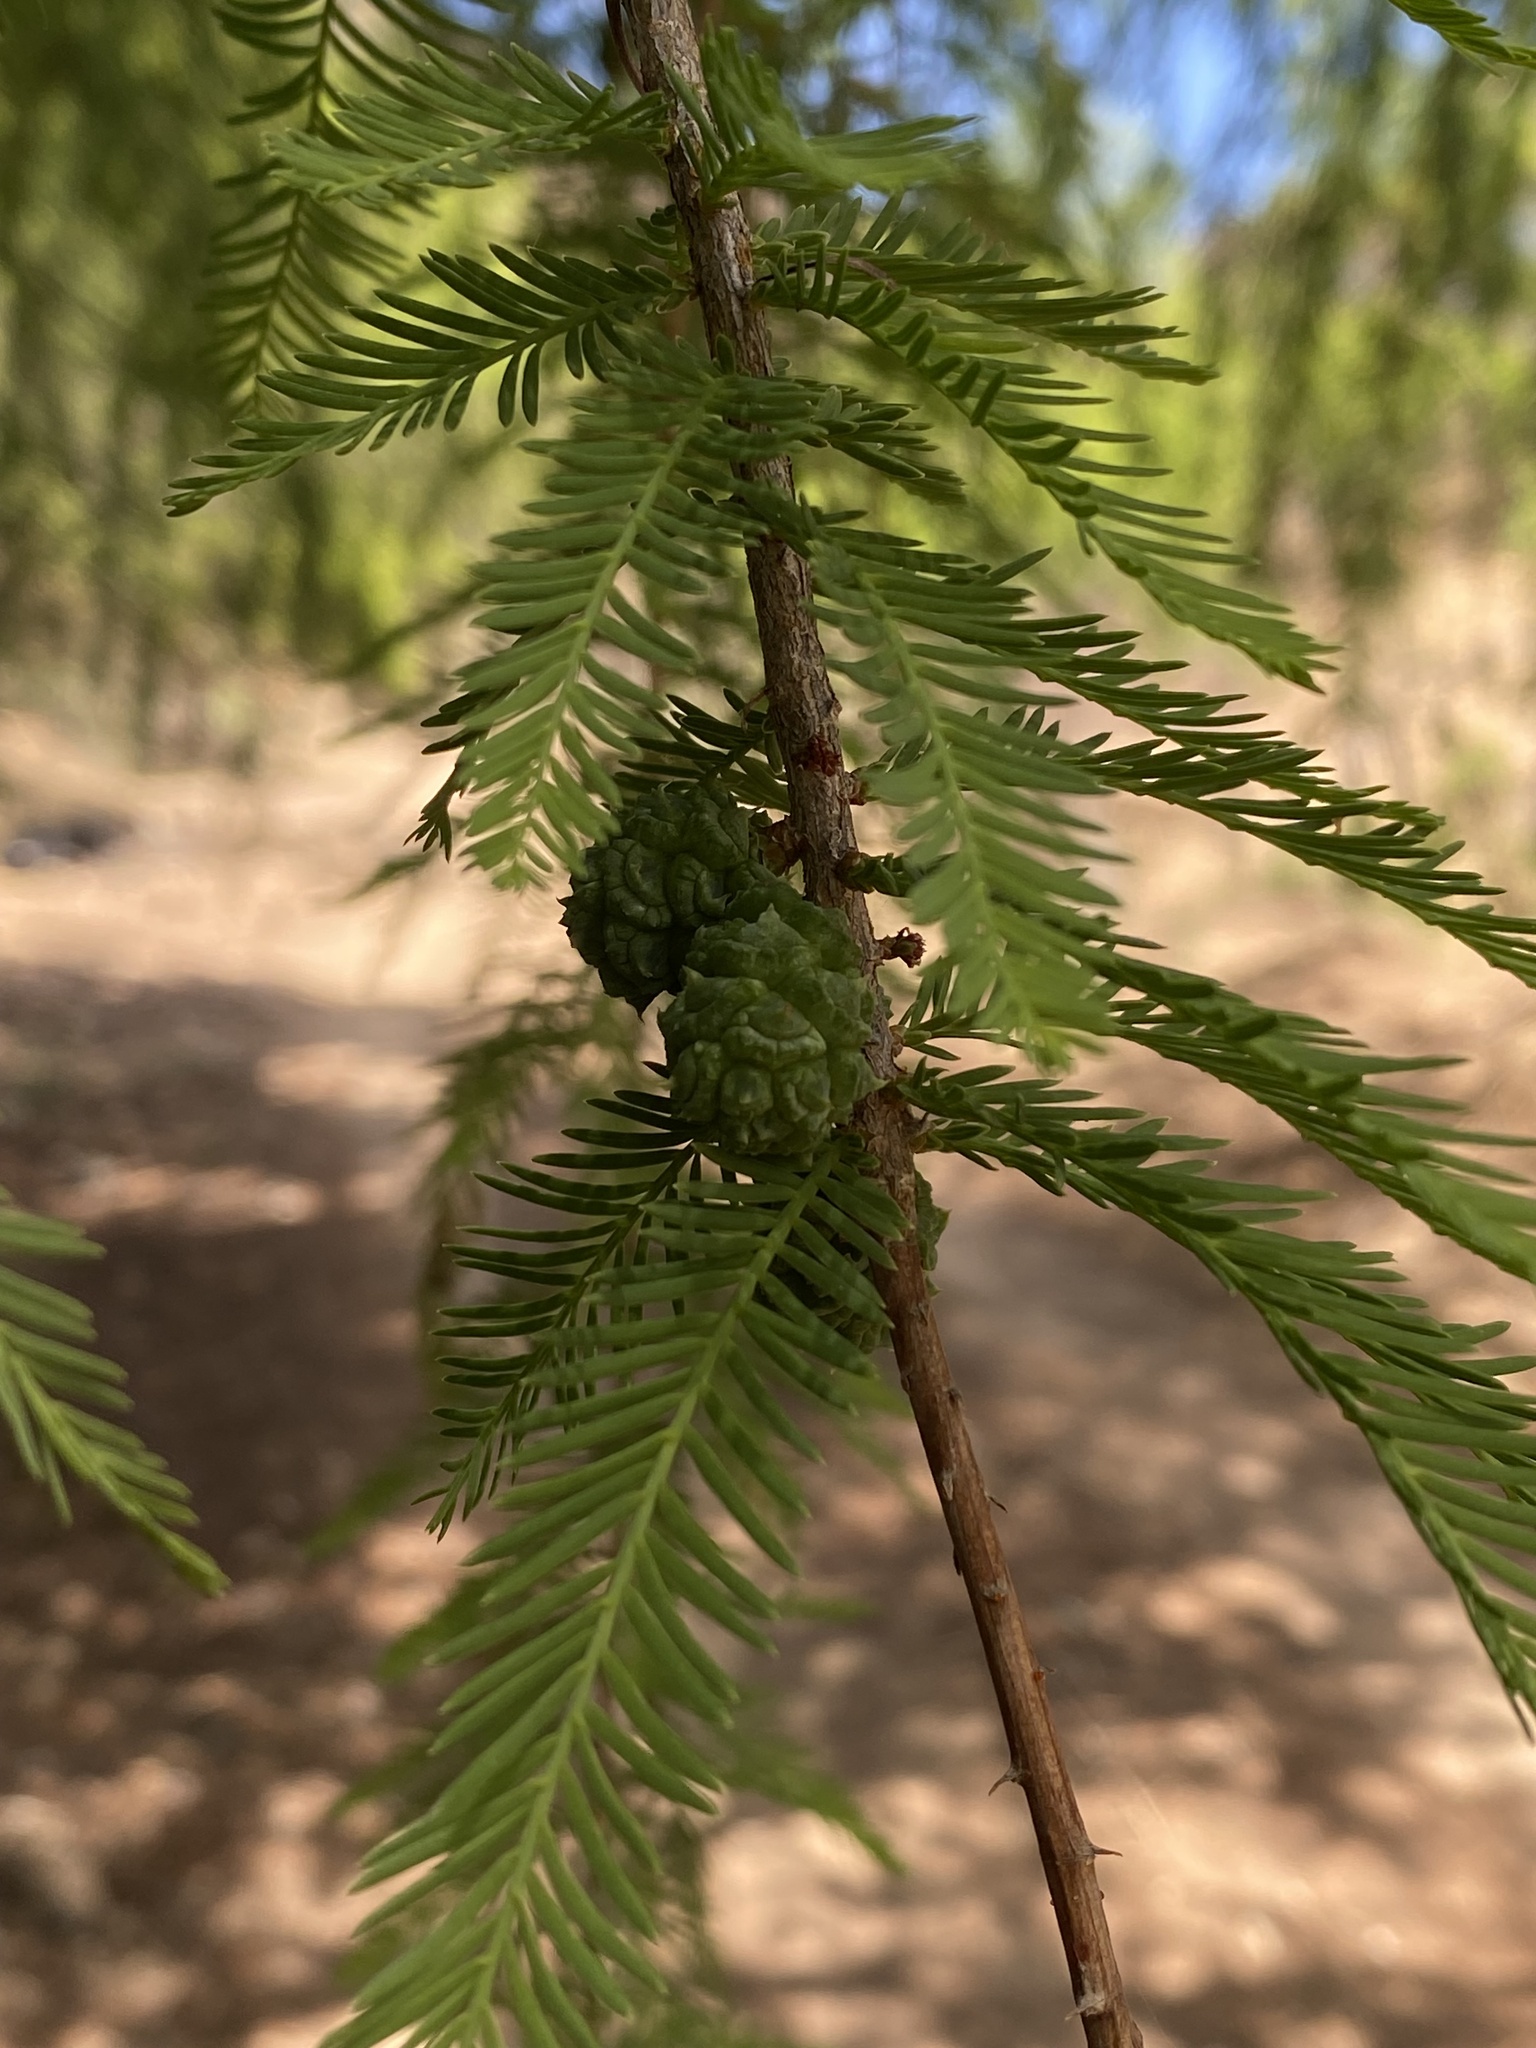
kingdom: Plantae
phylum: Tracheophyta
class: Pinopsida
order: Pinales
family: Cupressaceae
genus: Taxodium
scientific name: Taxodium mucronatum
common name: Montezume bald cypress
